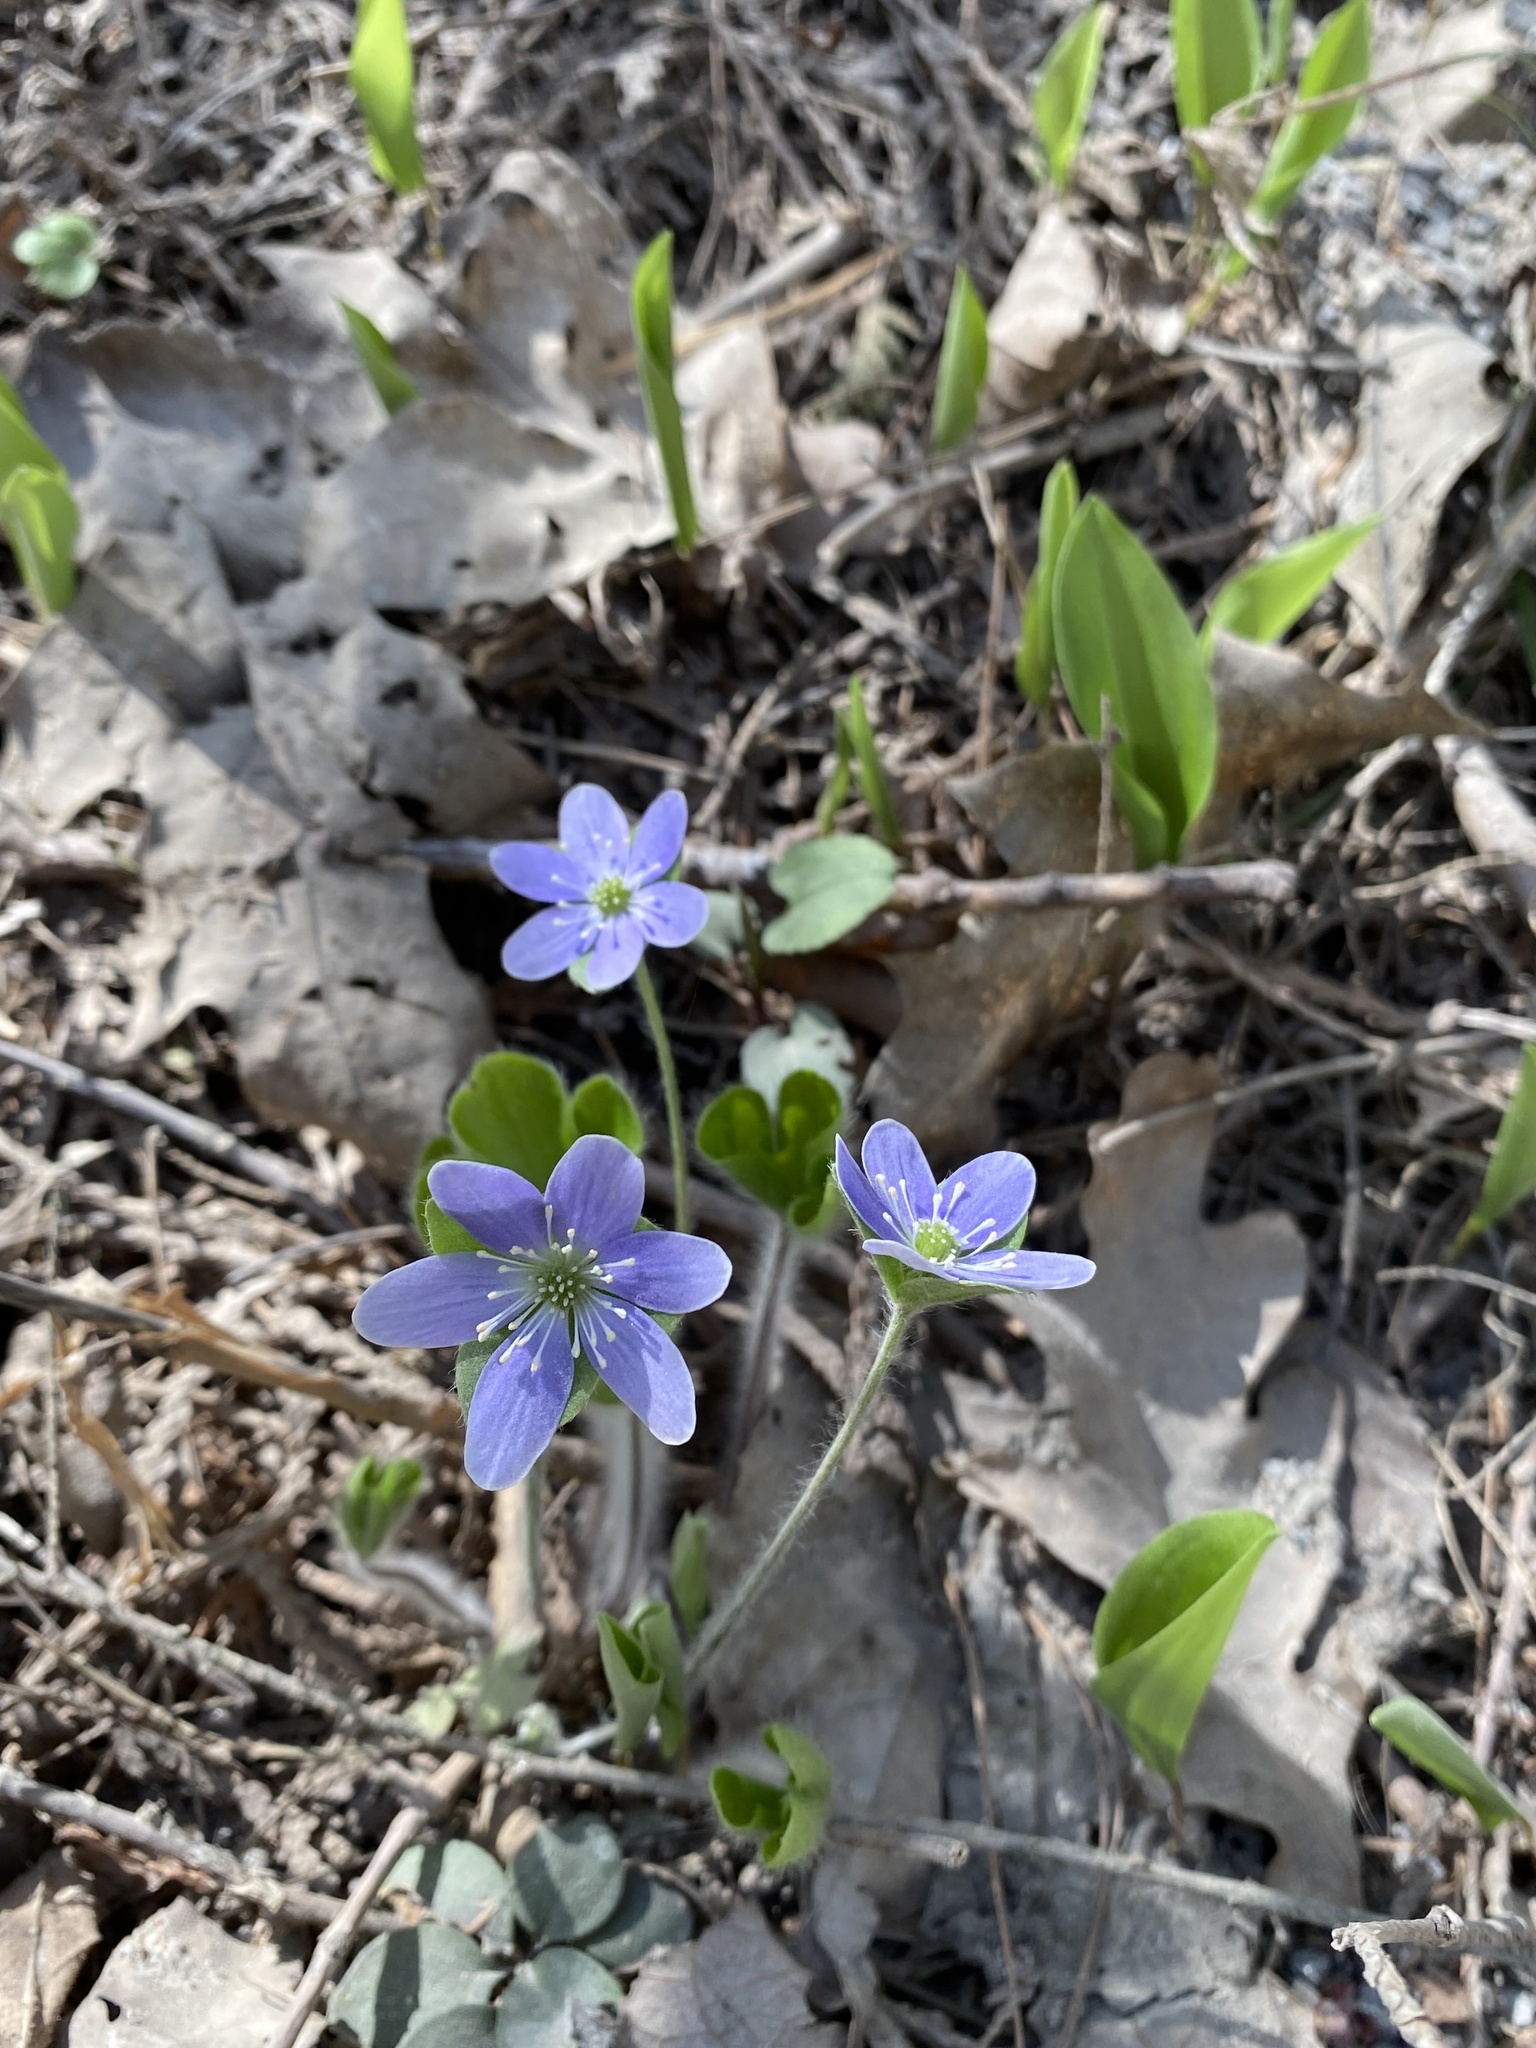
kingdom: Plantae
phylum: Tracheophyta
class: Magnoliopsida
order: Ranunculales
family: Ranunculaceae
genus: Hepatica
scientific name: Hepatica americana
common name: American hepatica
